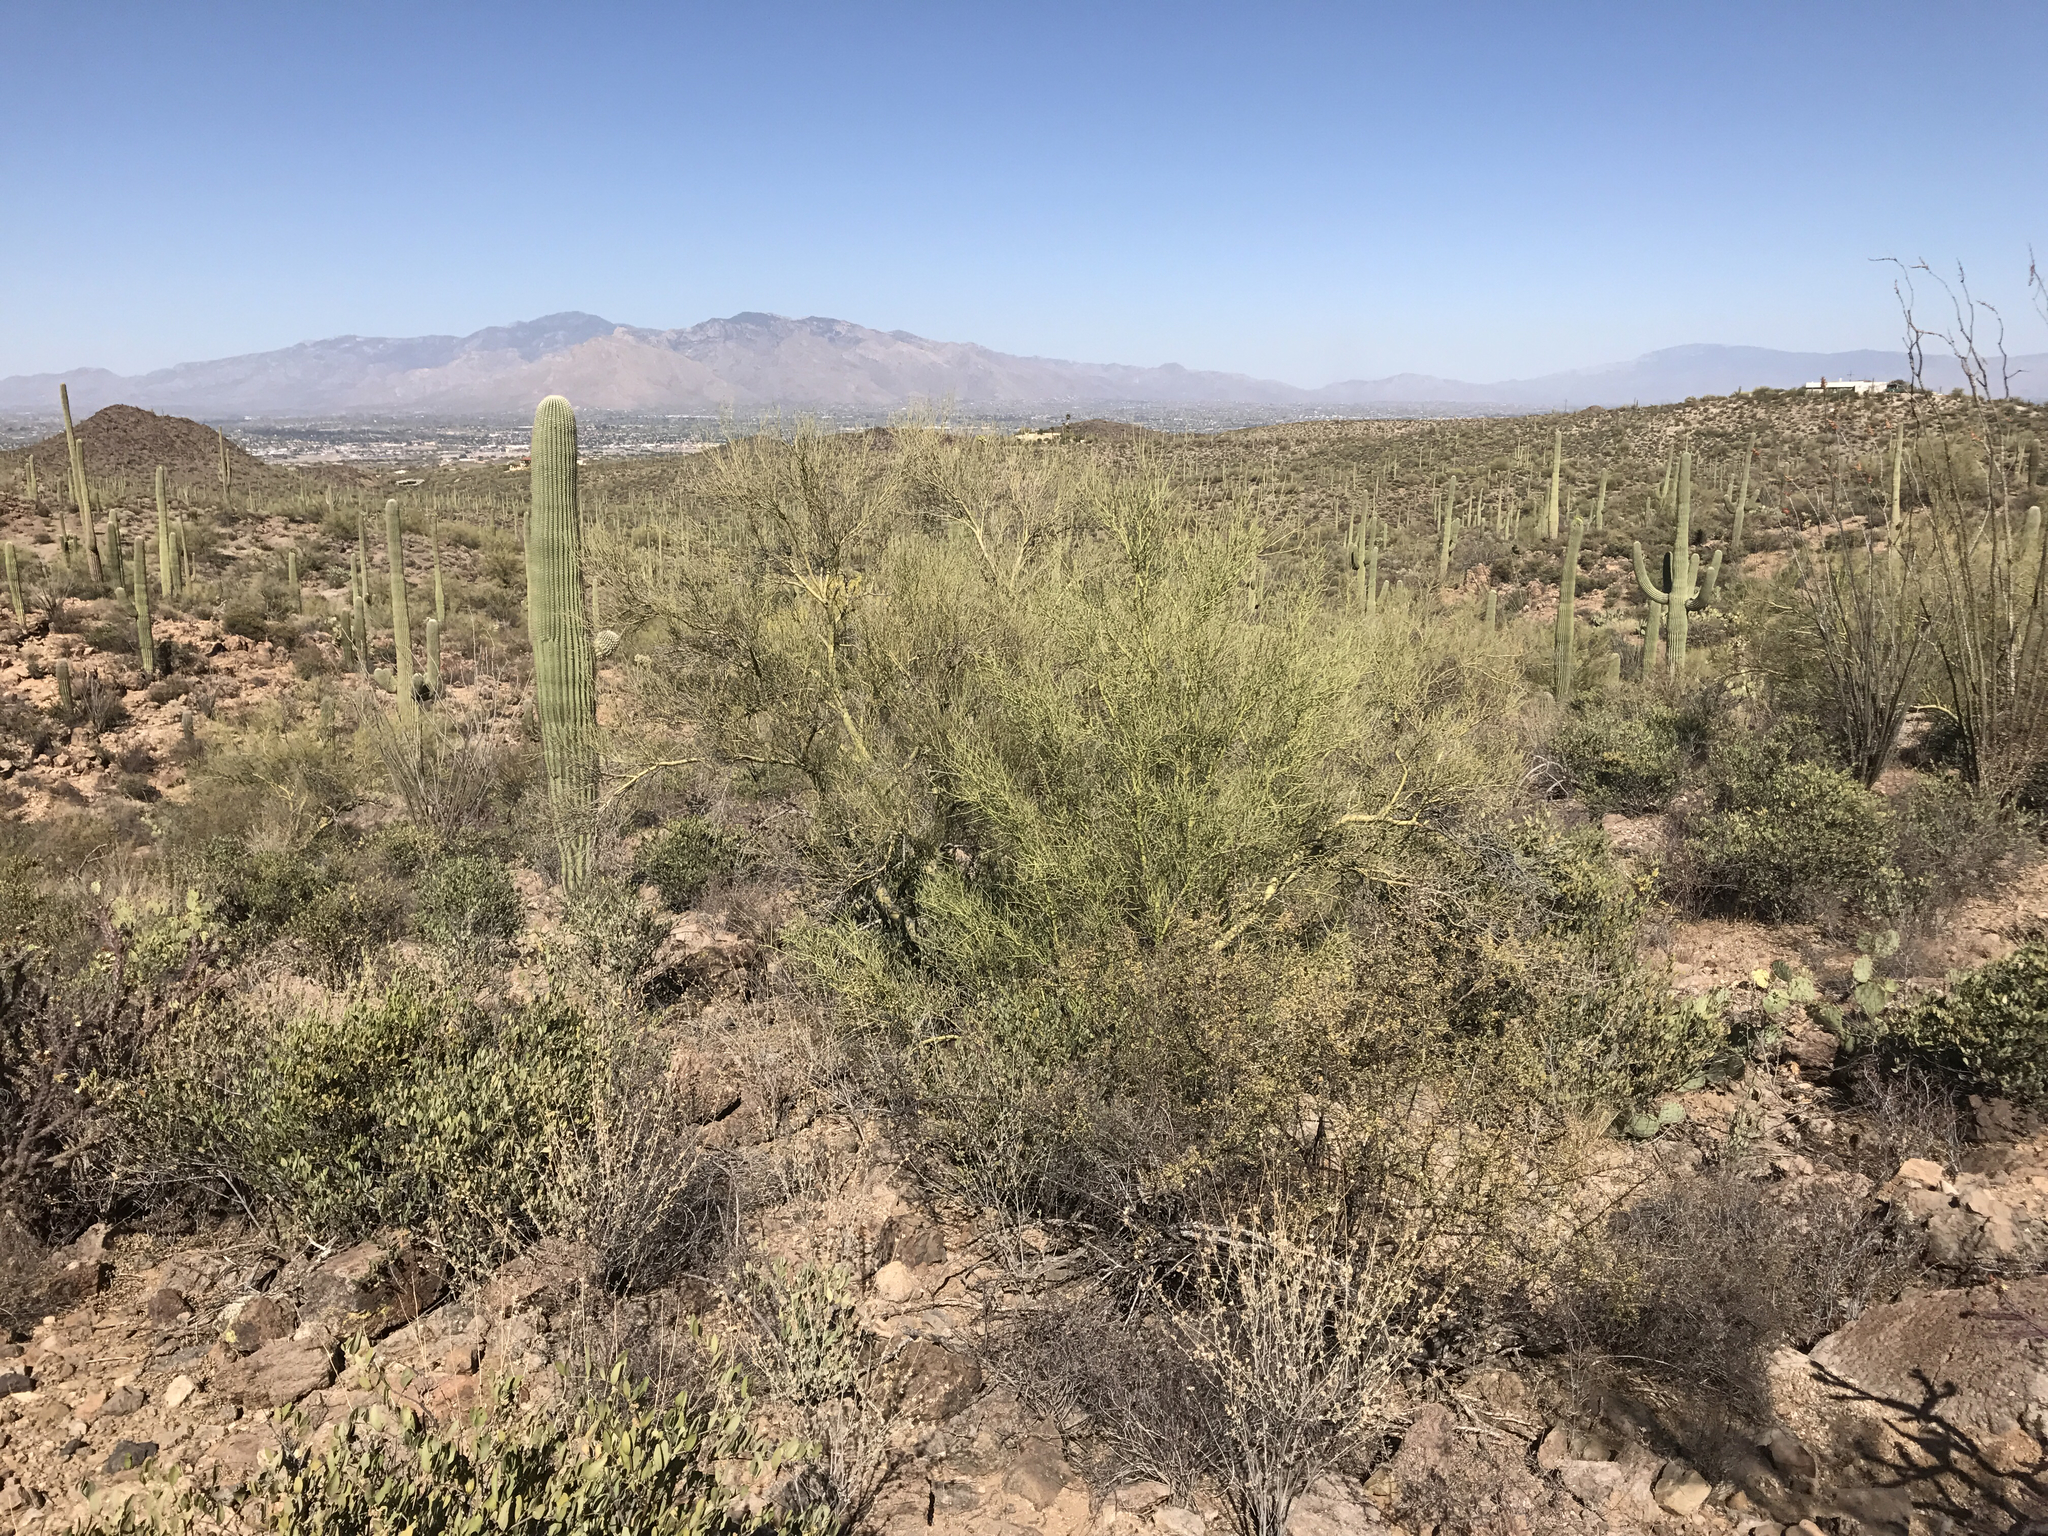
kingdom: Plantae
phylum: Tracheophyta
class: Magnoliopsida
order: Fabales
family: Fabaceae
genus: Parkinsonia
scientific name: Parkinsonia microphylla
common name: Yellow paloverde
